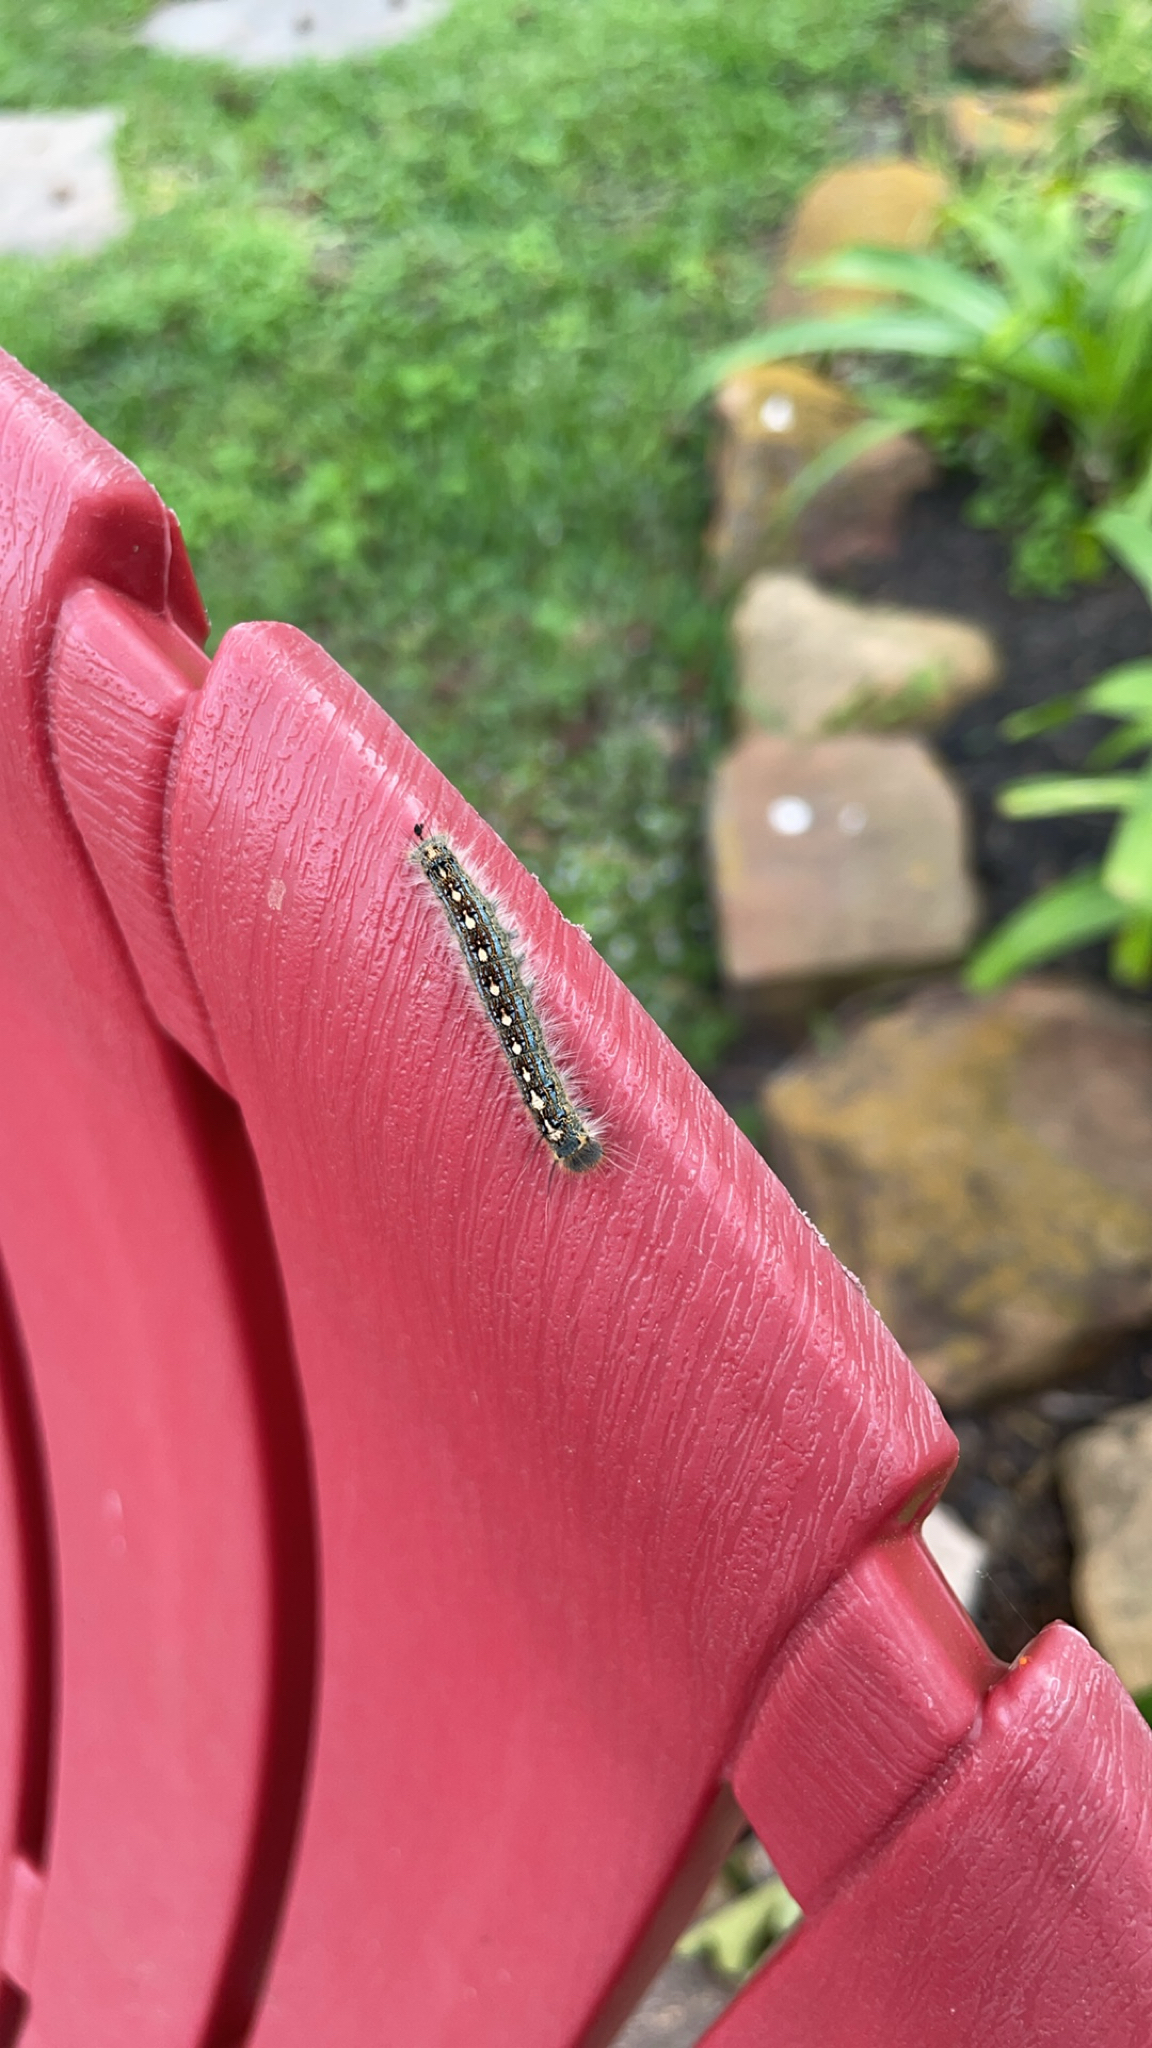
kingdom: Animalia
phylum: Arthropoda
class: Insecta
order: Lepidoptera
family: Lasiocampidae
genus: Malacosoma
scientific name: Malacosoma disstria
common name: Forest tent caterpillar
